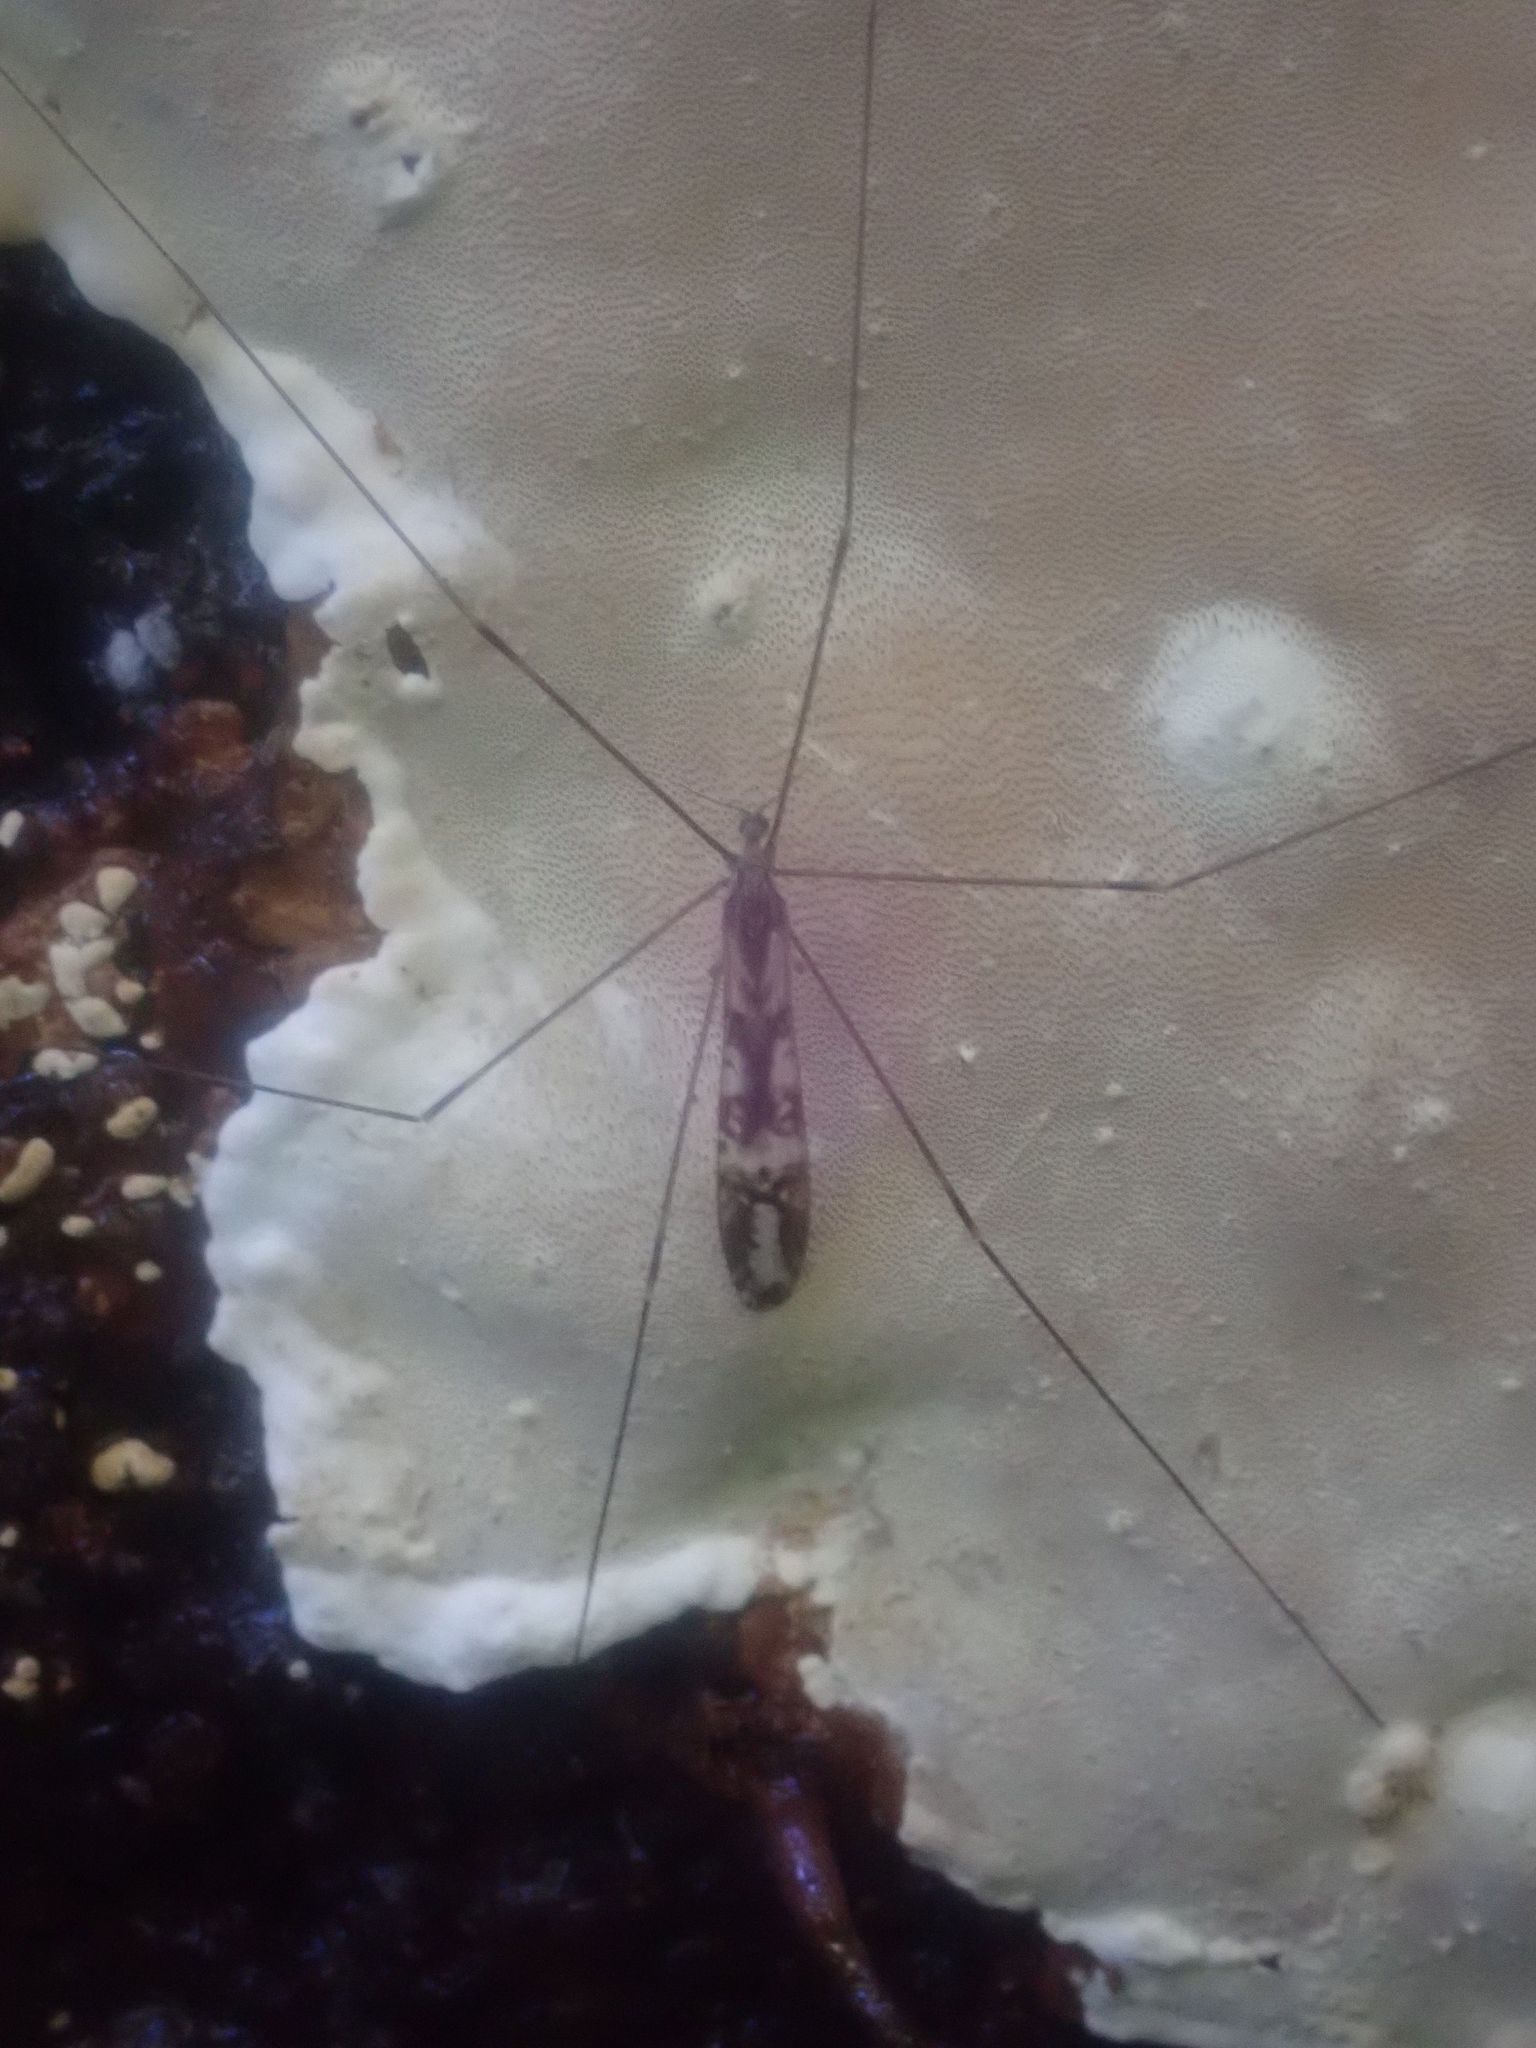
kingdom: Animalia
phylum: Arthropoda
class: Insecta
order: Diptera
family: Limoniidae
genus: Discobola
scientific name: Discobola dohrni
